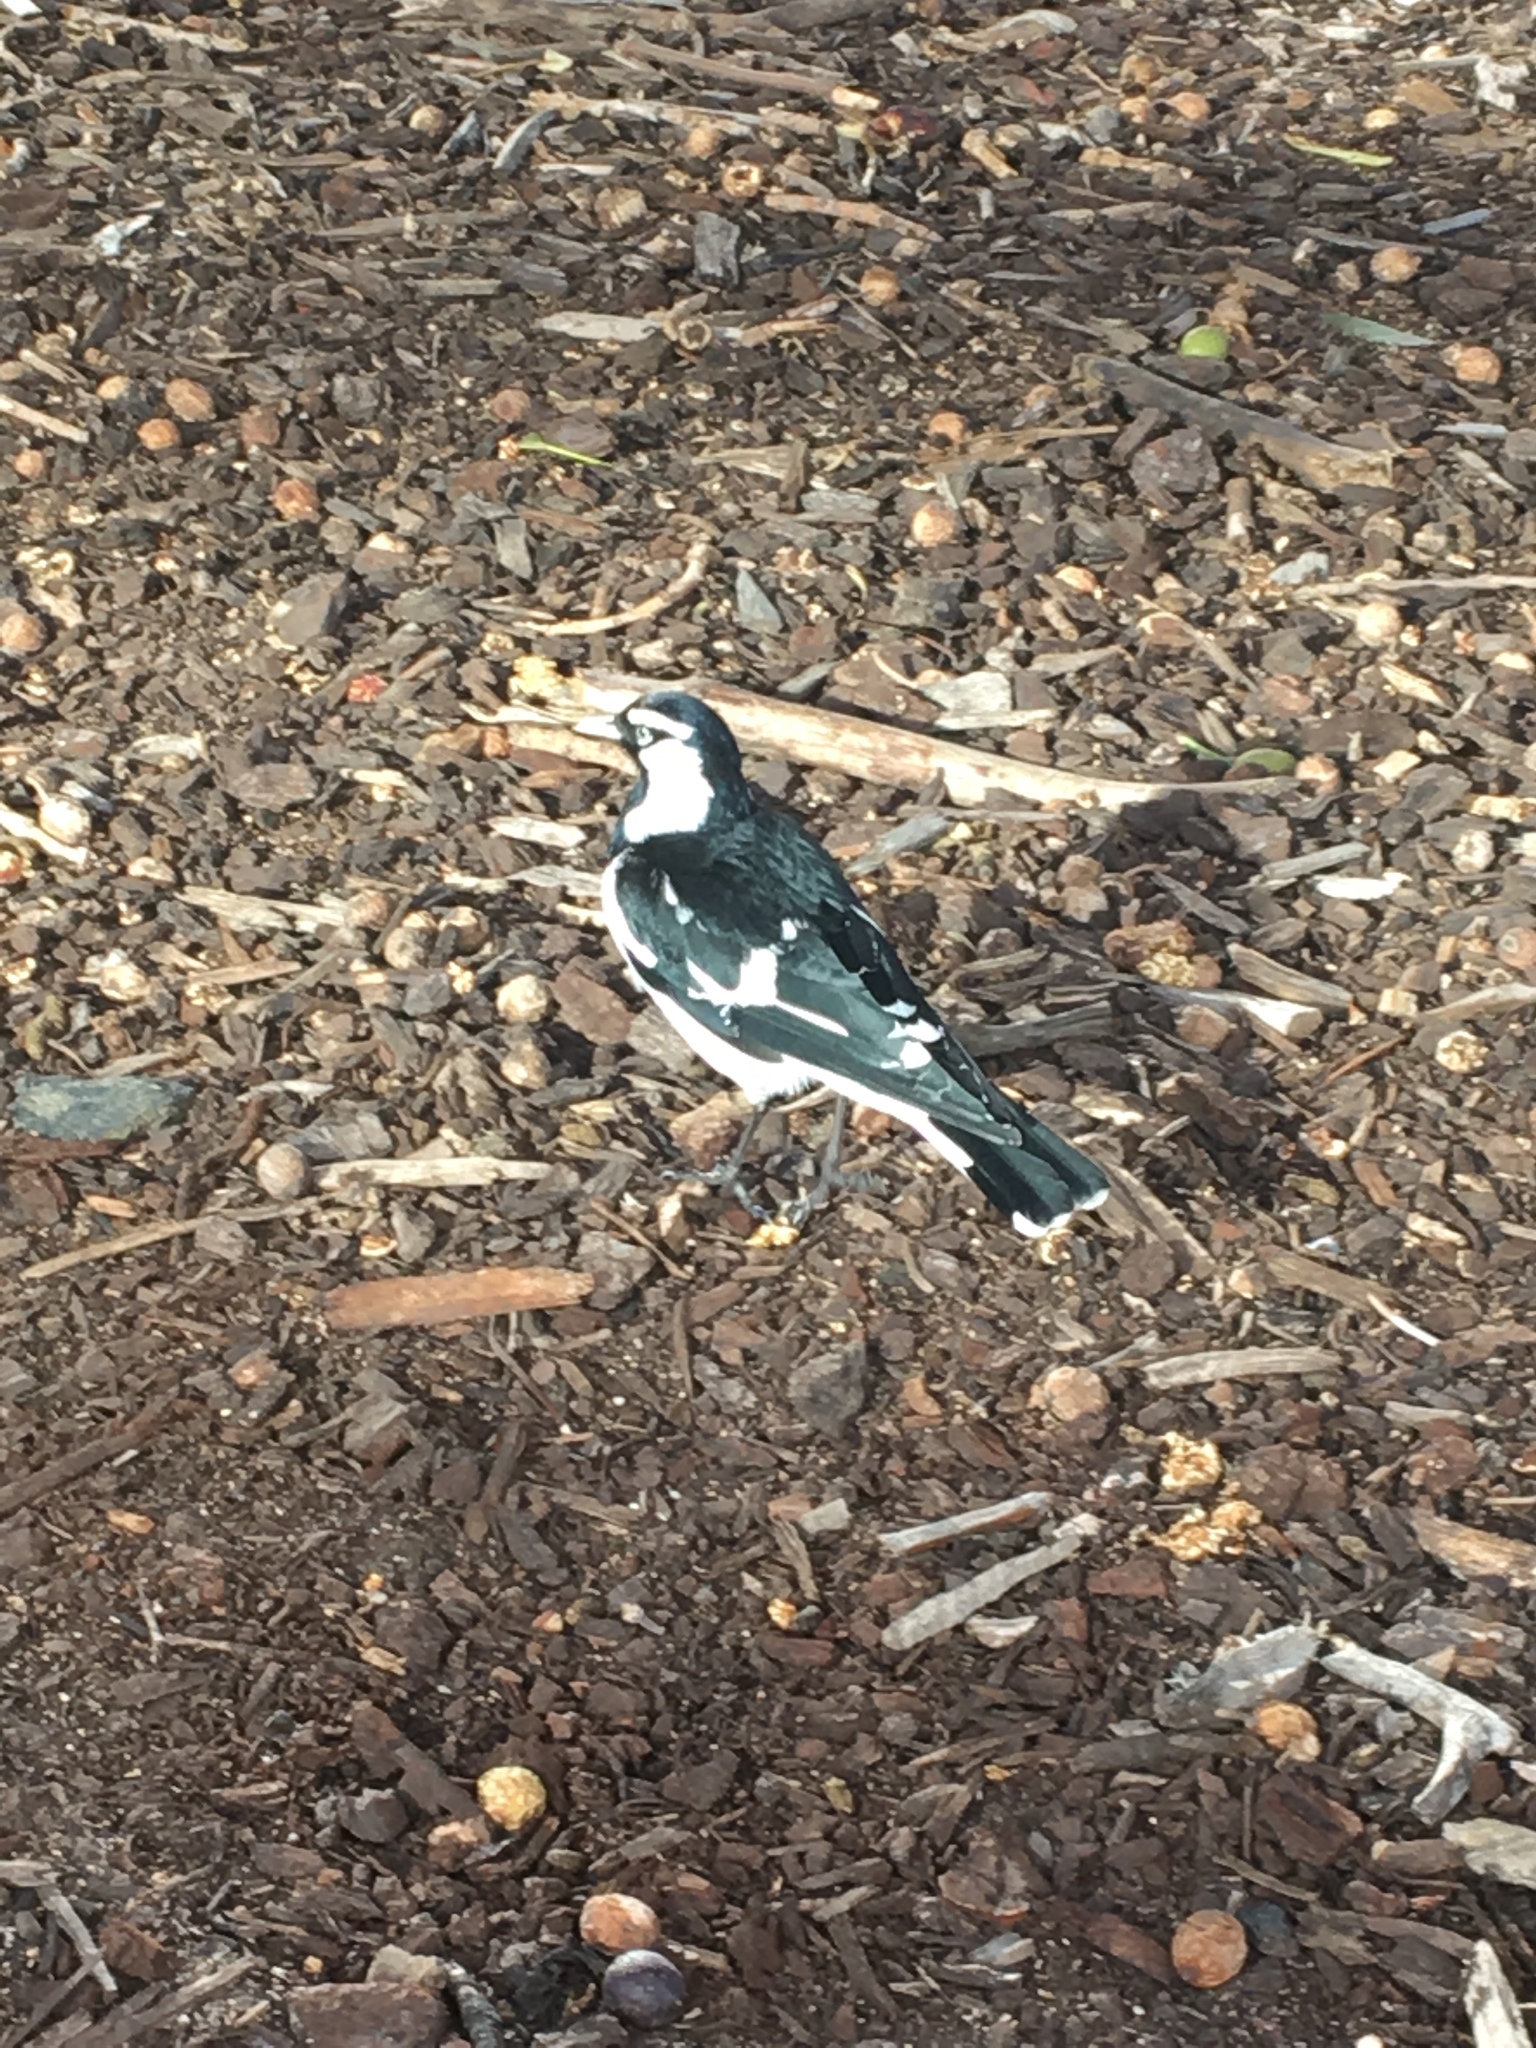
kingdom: Animalia
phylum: Chordata
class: Aves
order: Passeriformes
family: Monarchidae
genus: Grallina
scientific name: Grallina cyanoleuca
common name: Magpie-lark
